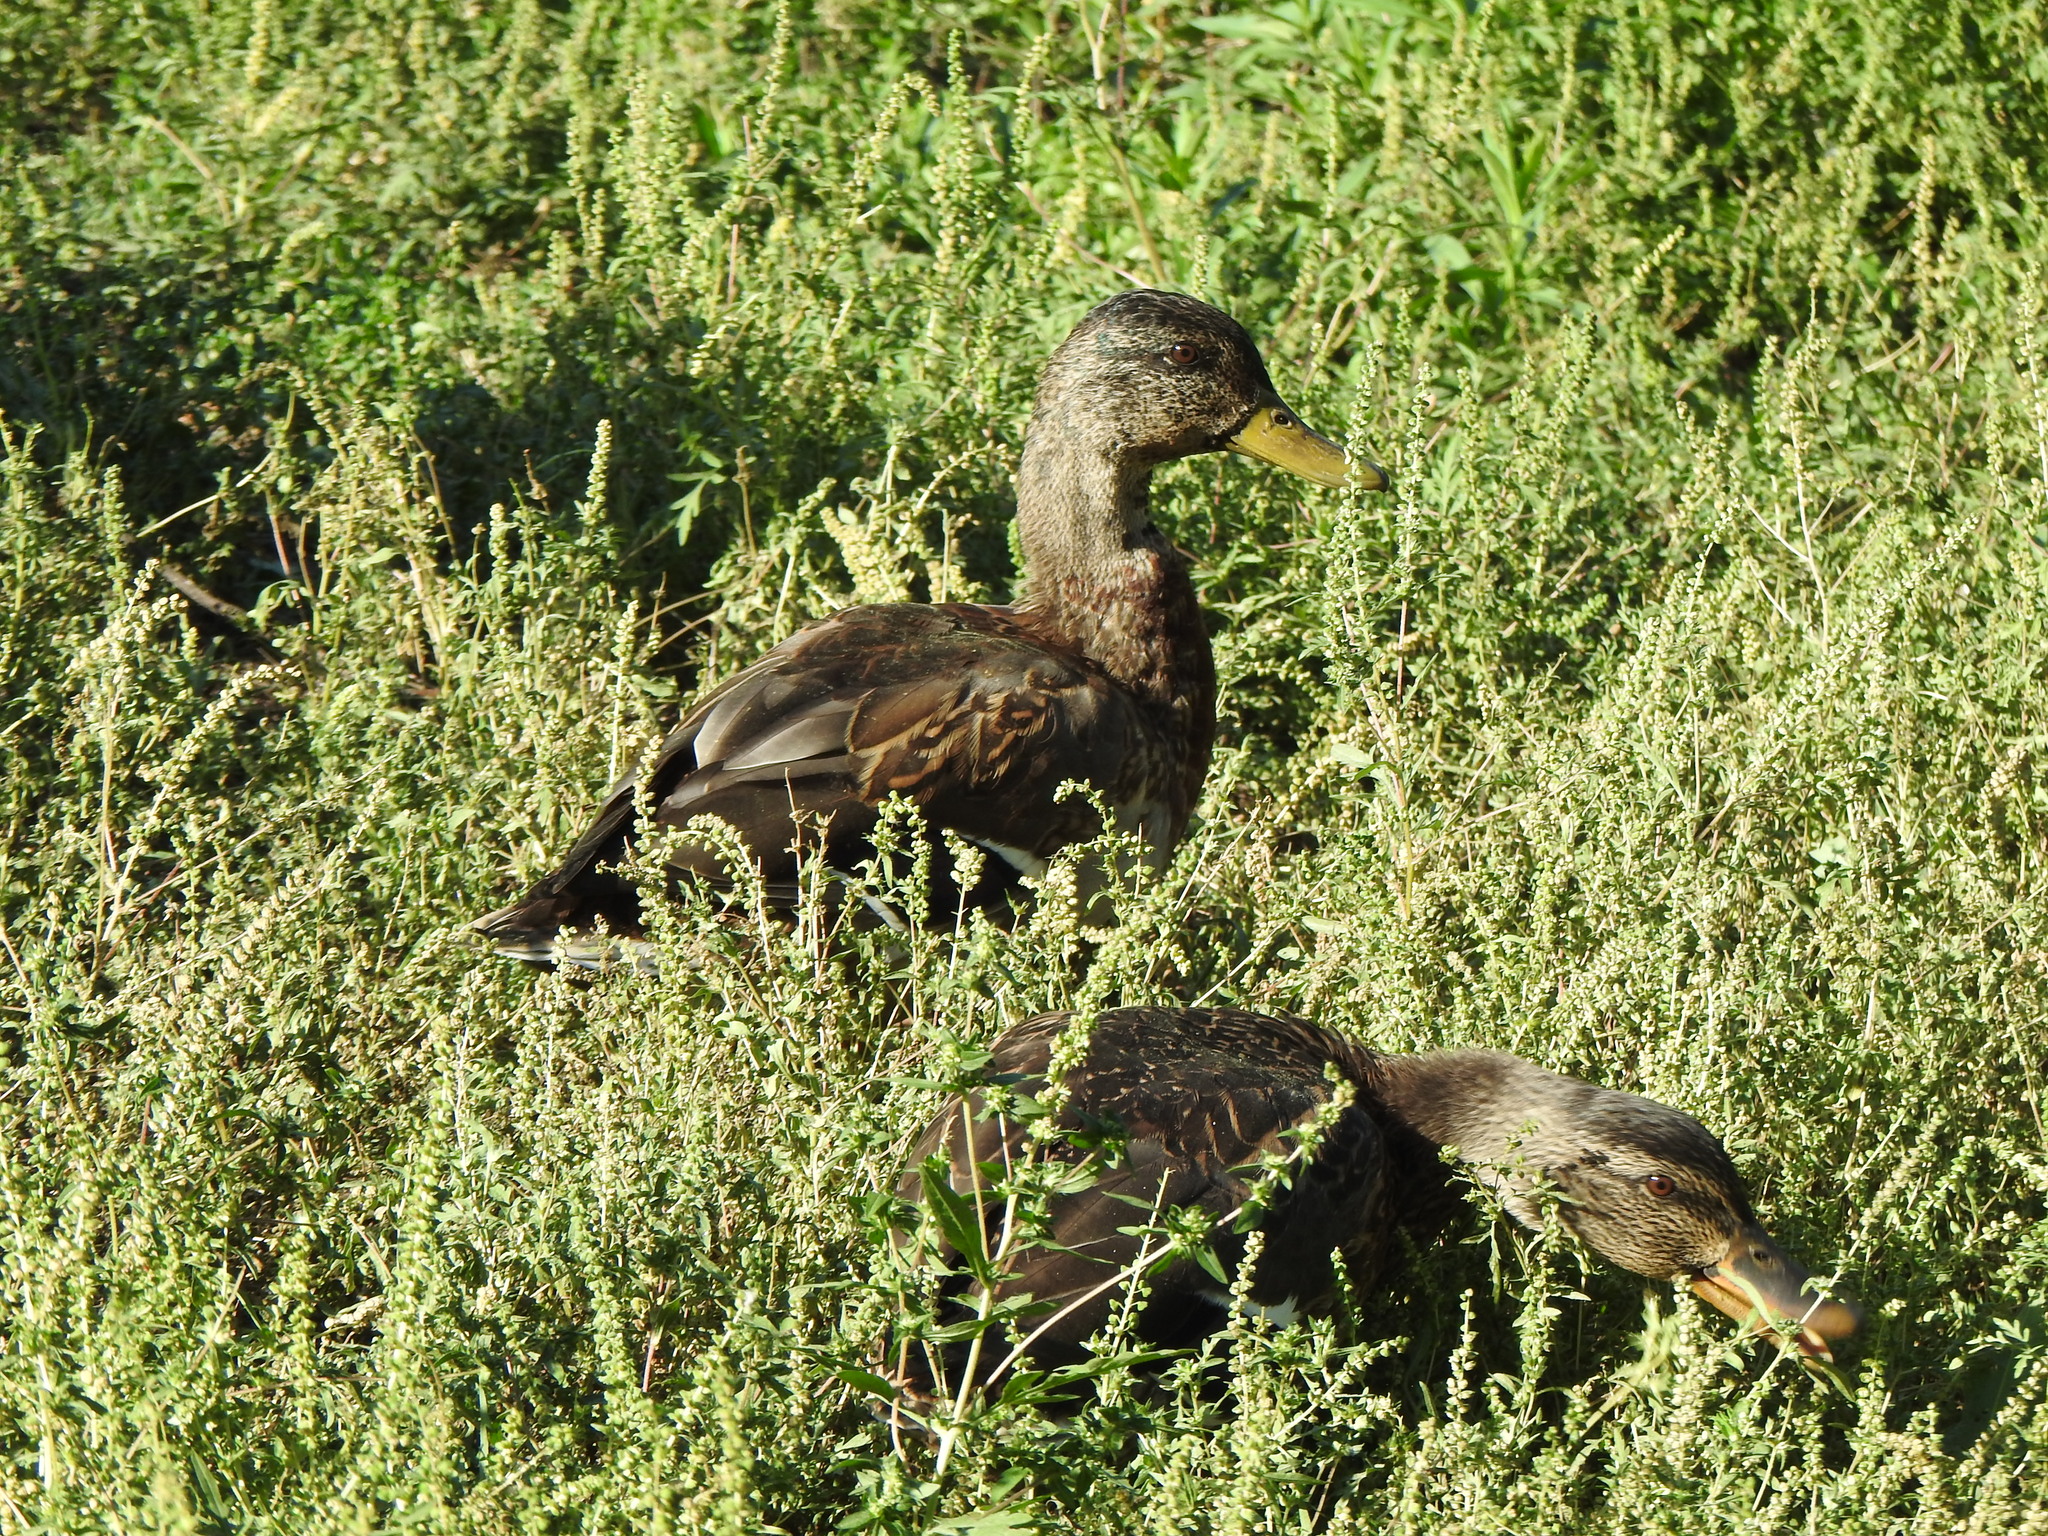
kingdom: Animalia
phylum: Chordata
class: Aves
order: Anseriformes
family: Anatidae
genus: Anas
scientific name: Anas platyrhynchos
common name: Mallard
